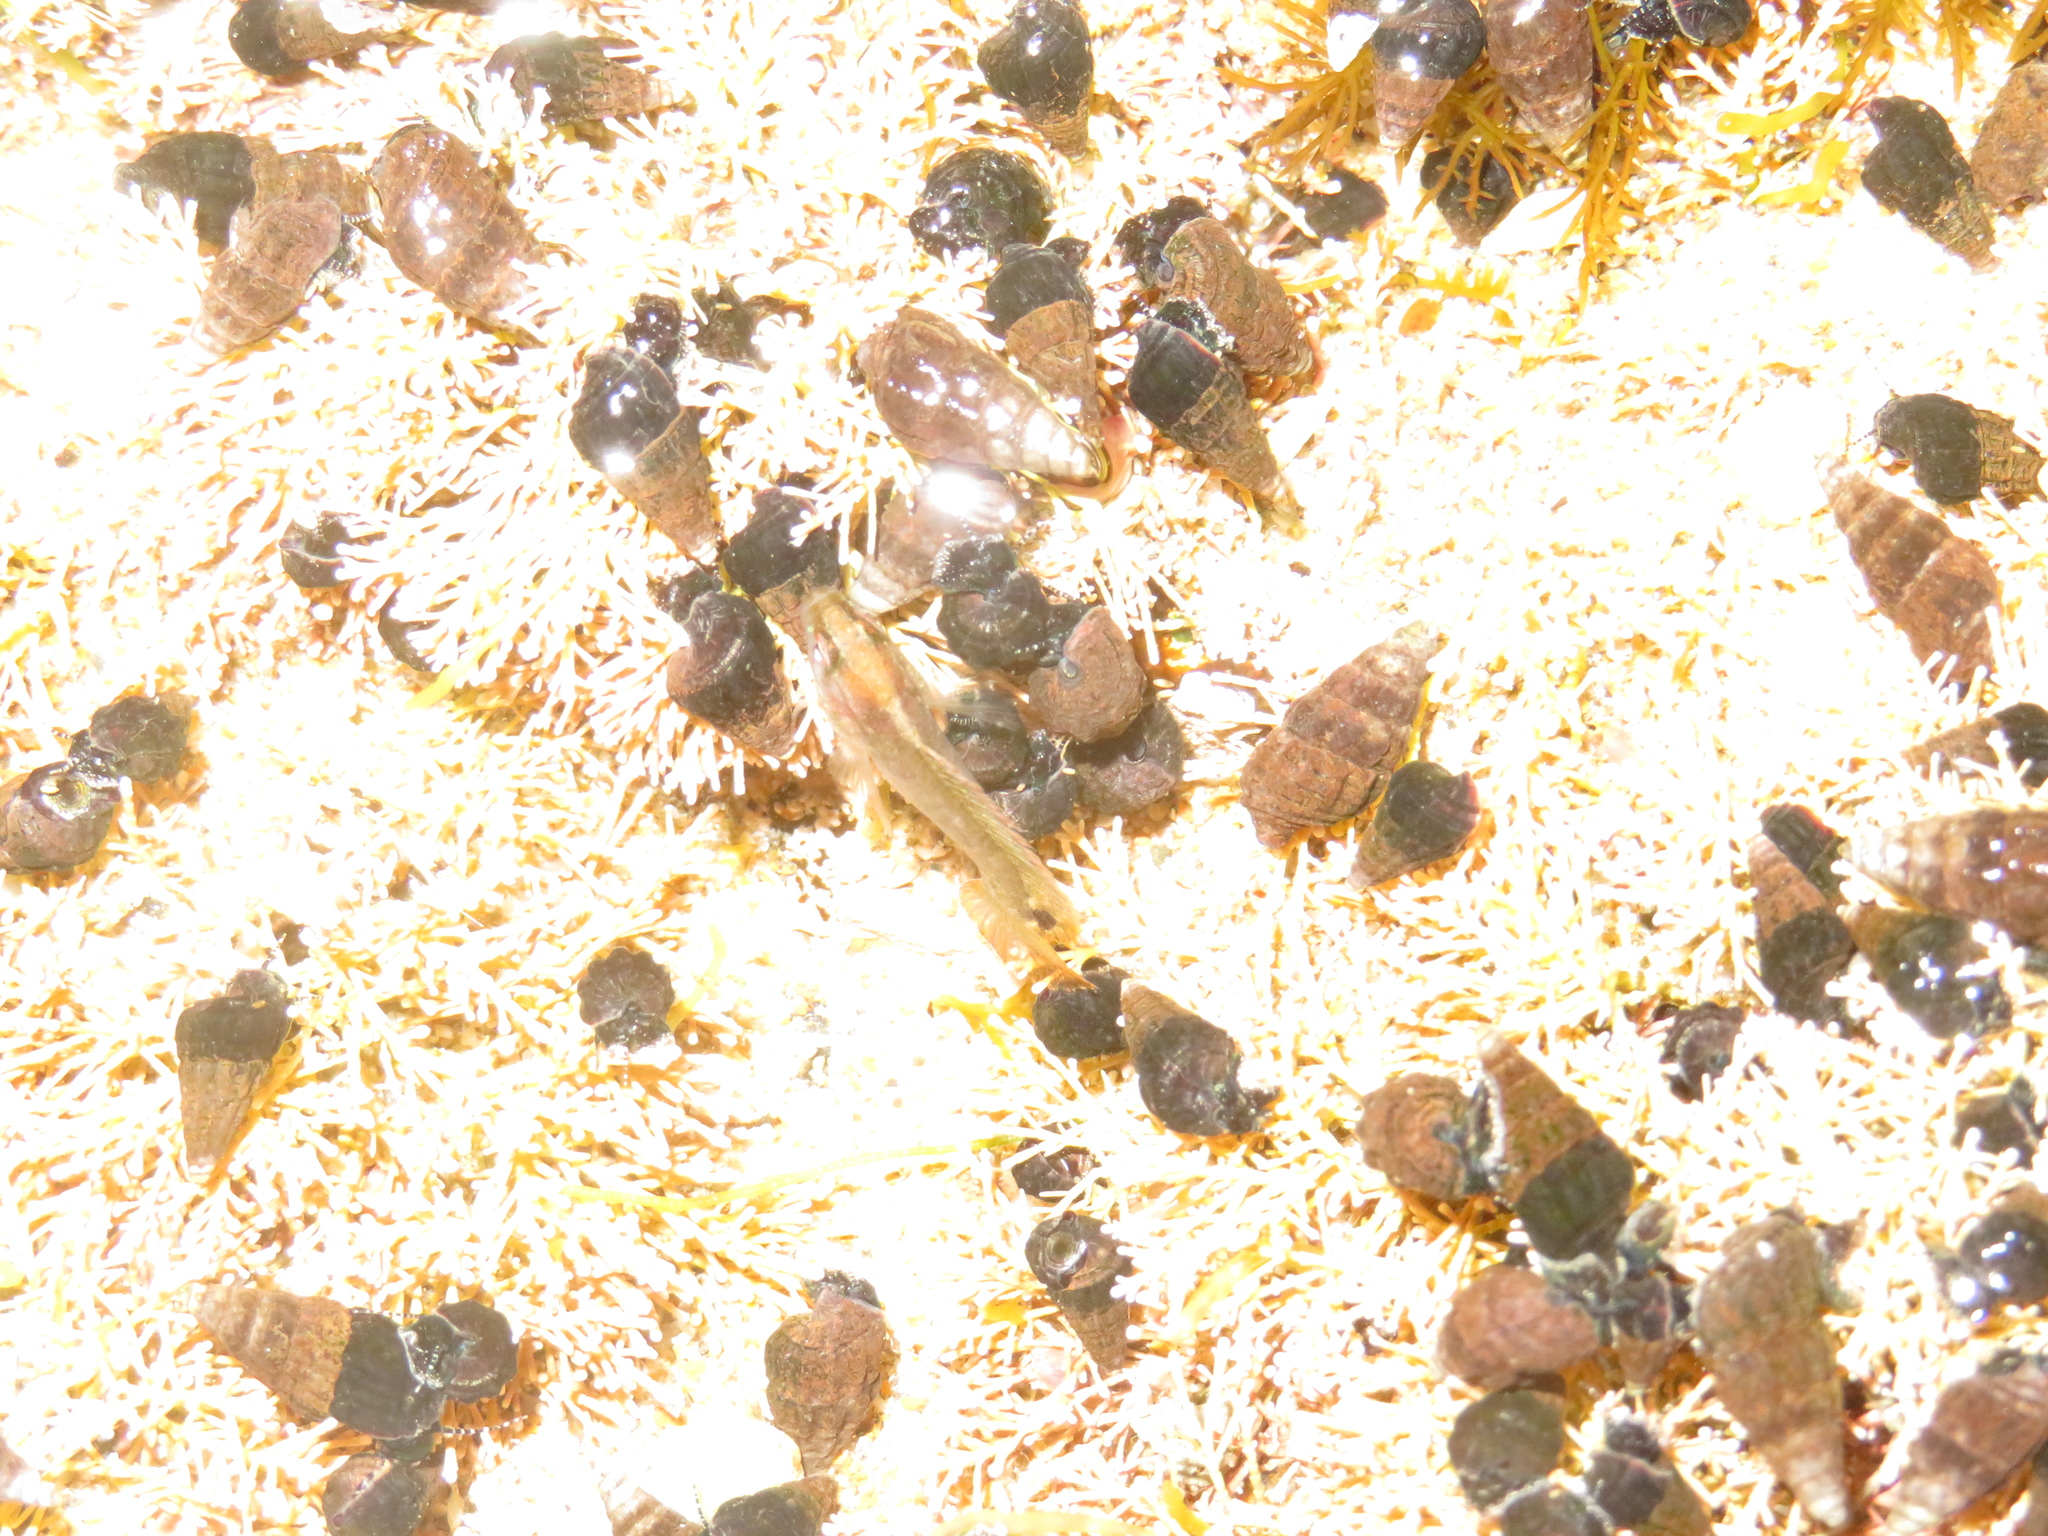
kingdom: Animalia
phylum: Chordata
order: Perciformes
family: Plesiopidae
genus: Acanthoclinus
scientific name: Acanthoclinus fuscus
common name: Olive rockfish
